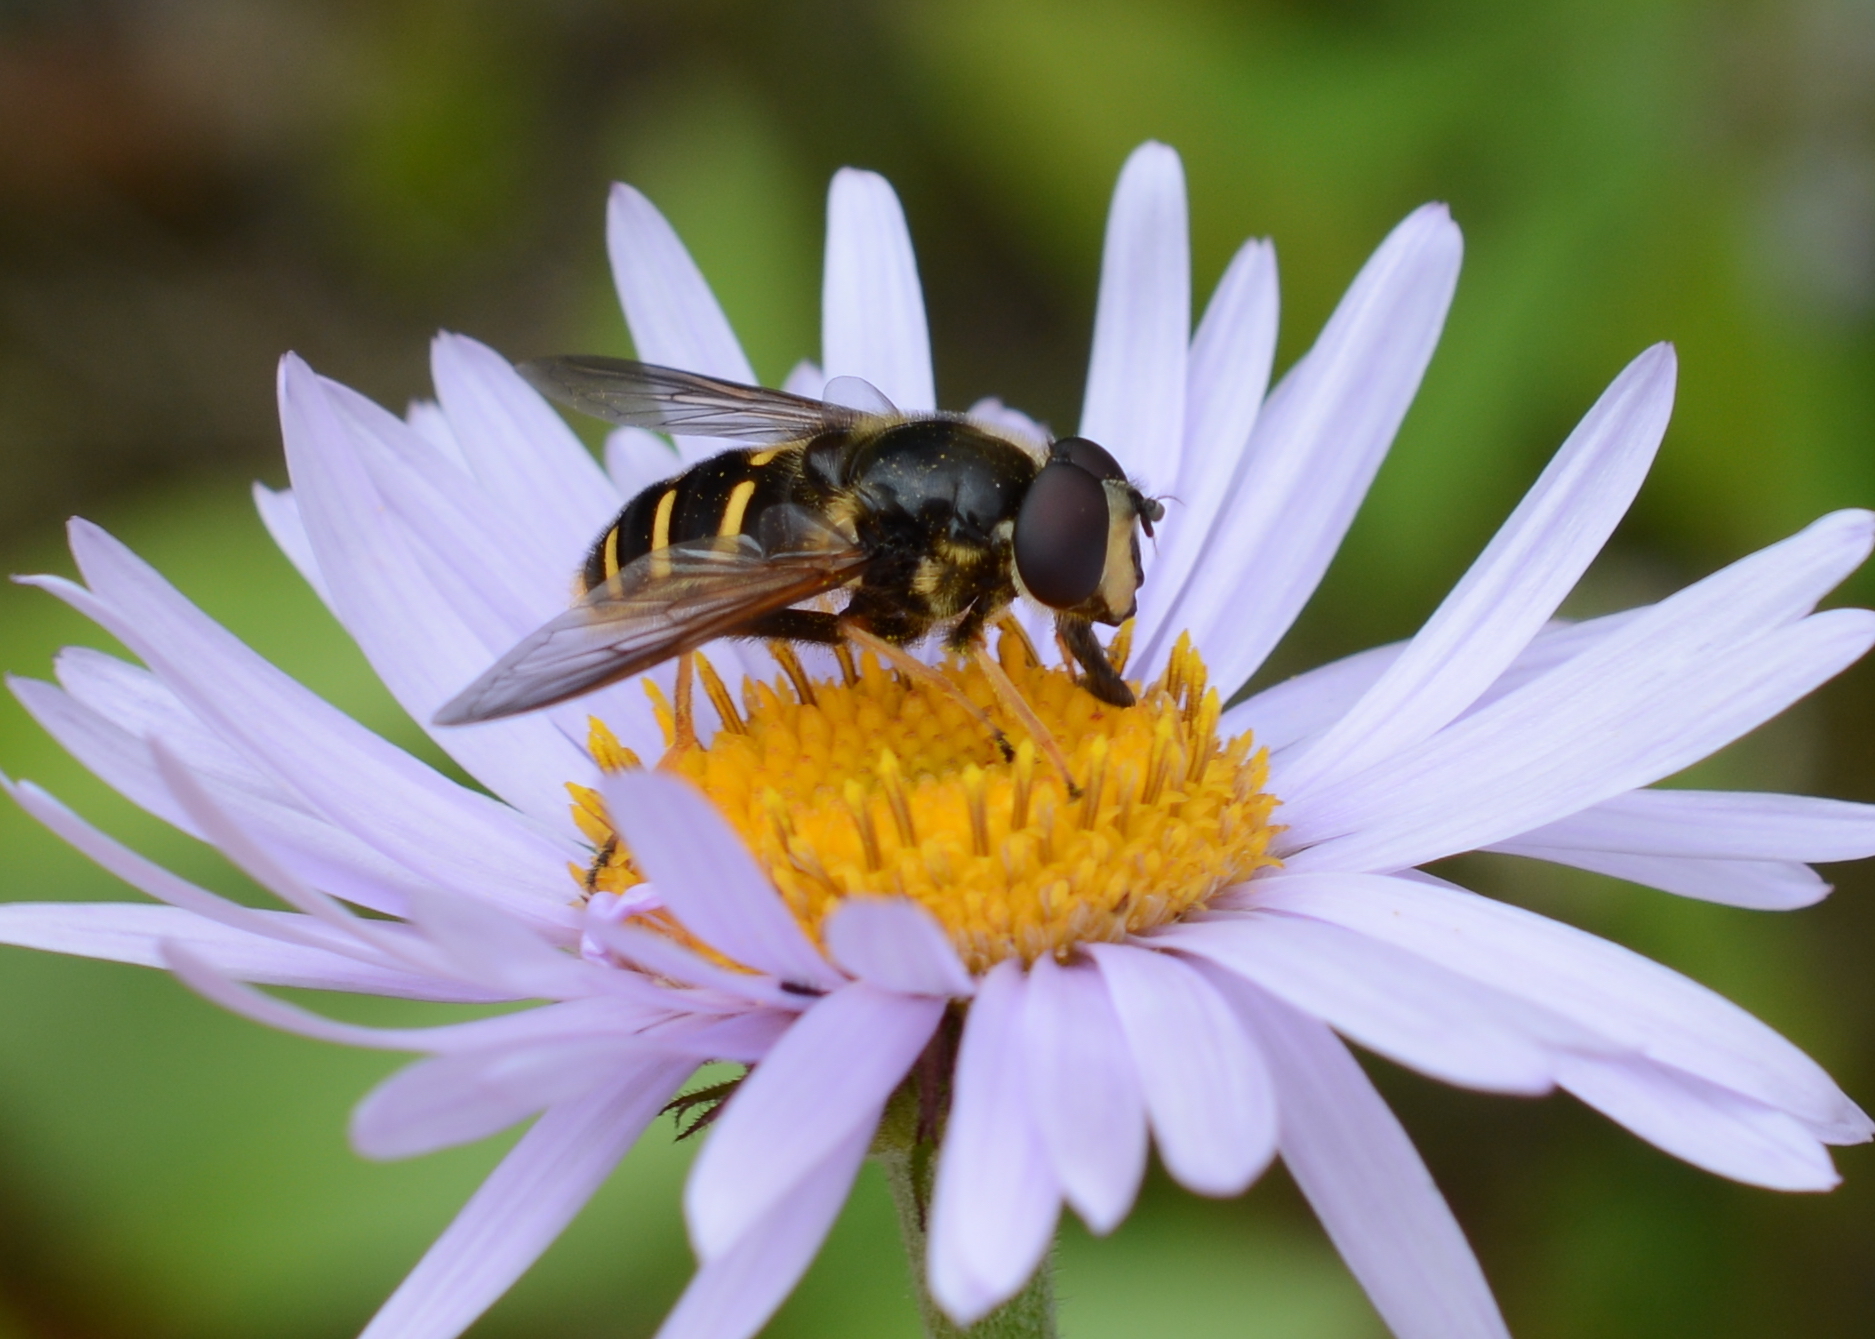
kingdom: Animalia
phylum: Arthropoda
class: Insecta
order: Diptera
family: Syrphidae
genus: Sericomyia
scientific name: Sericomyia chalcopyga
